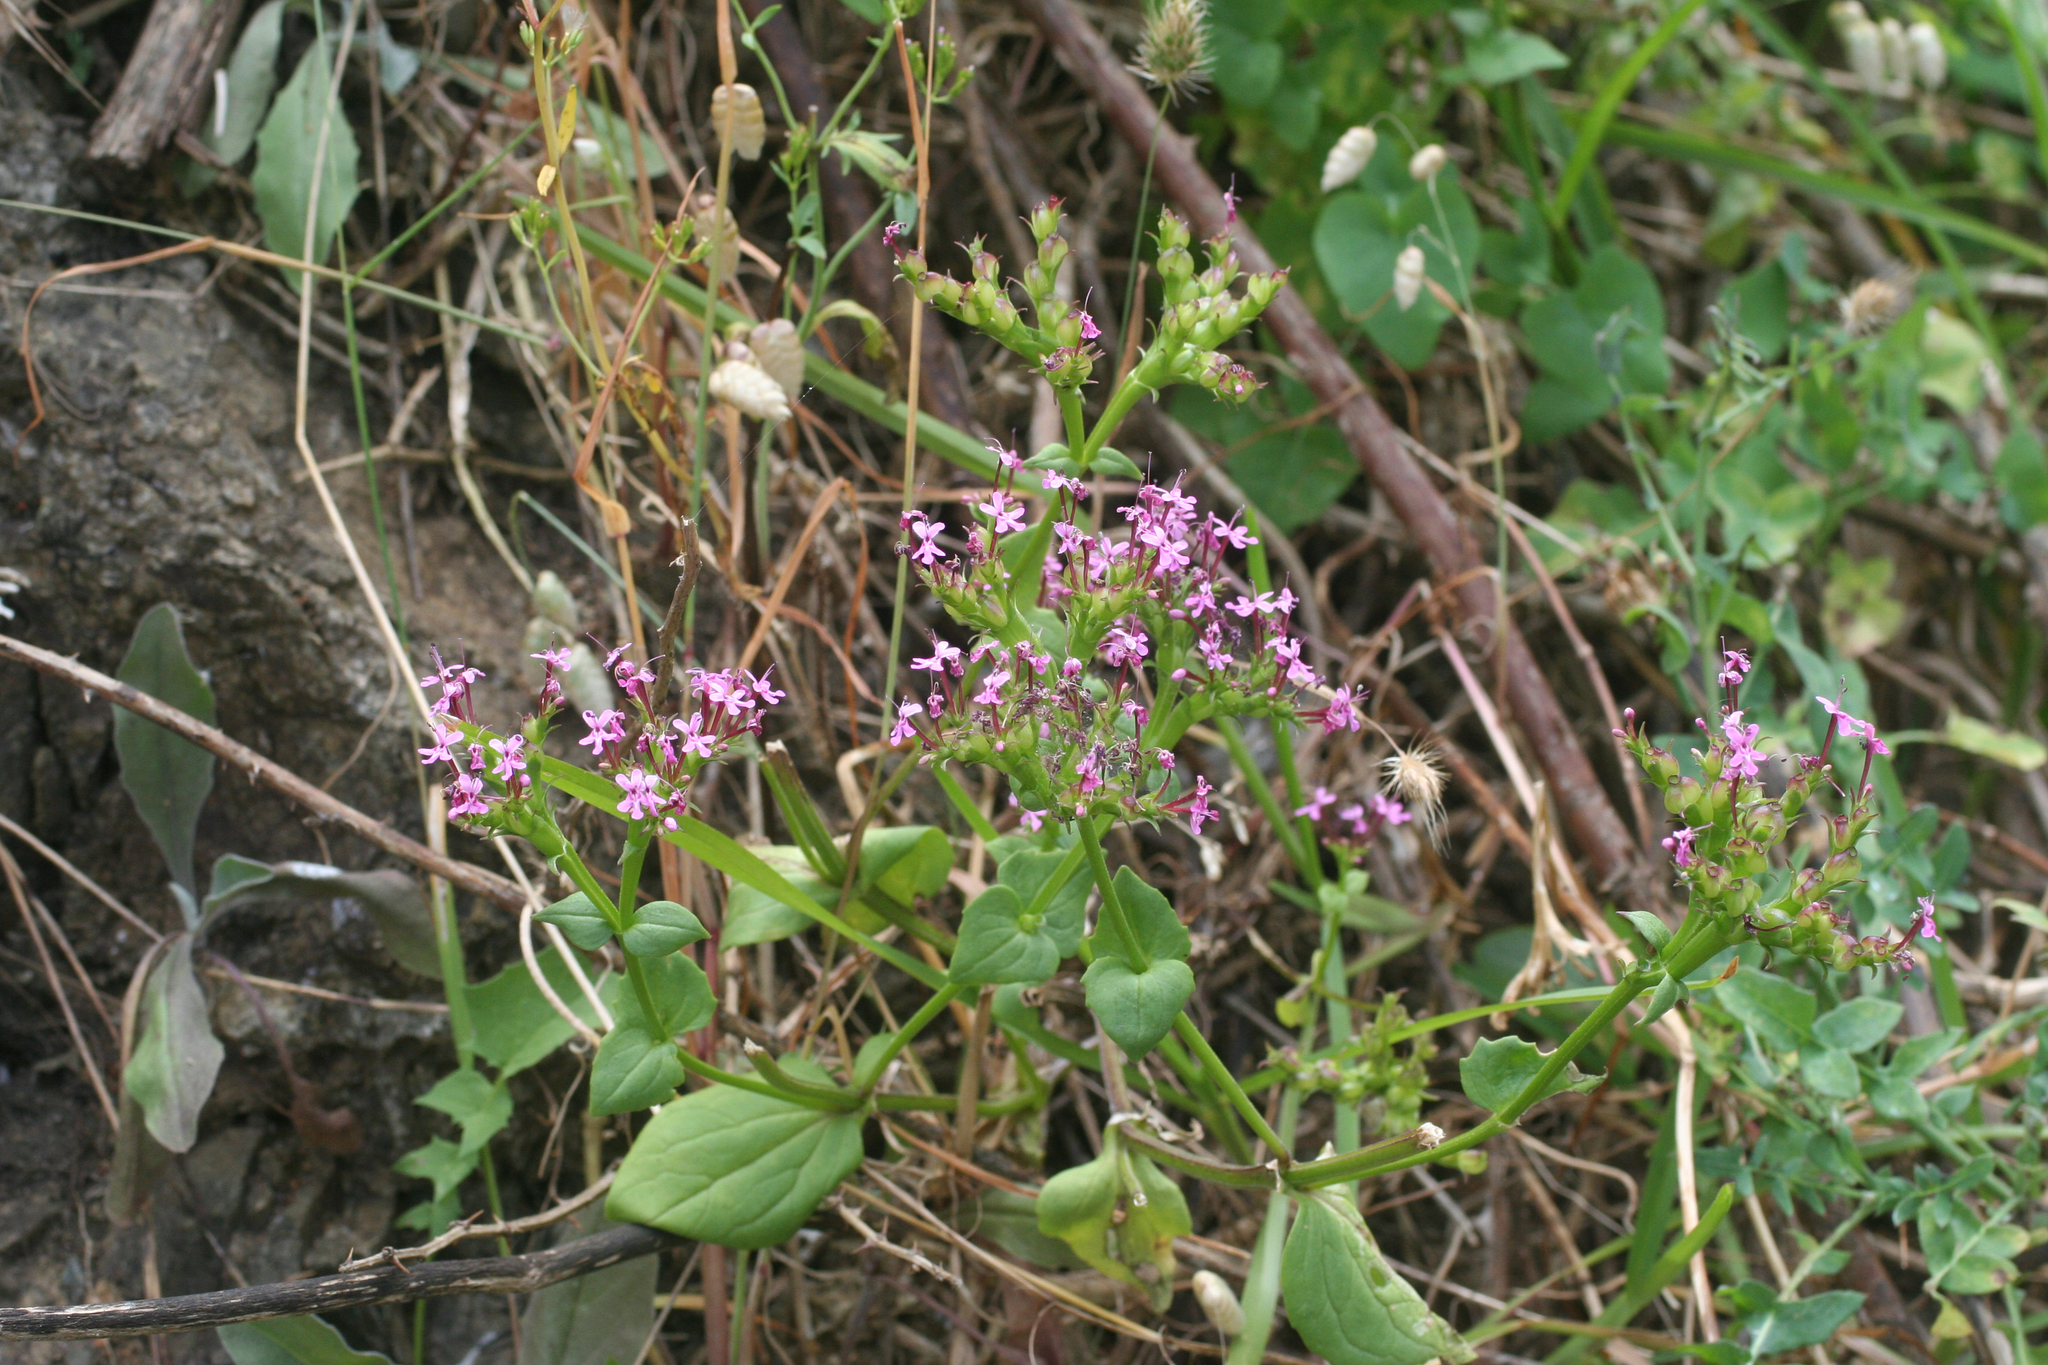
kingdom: Plantae
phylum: Tracheophyta
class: Magnoliopsida
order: Dipsacales
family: Caprifoliaceae
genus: Fedia
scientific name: Fedia cornucopiae
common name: Horn-of-plenty
